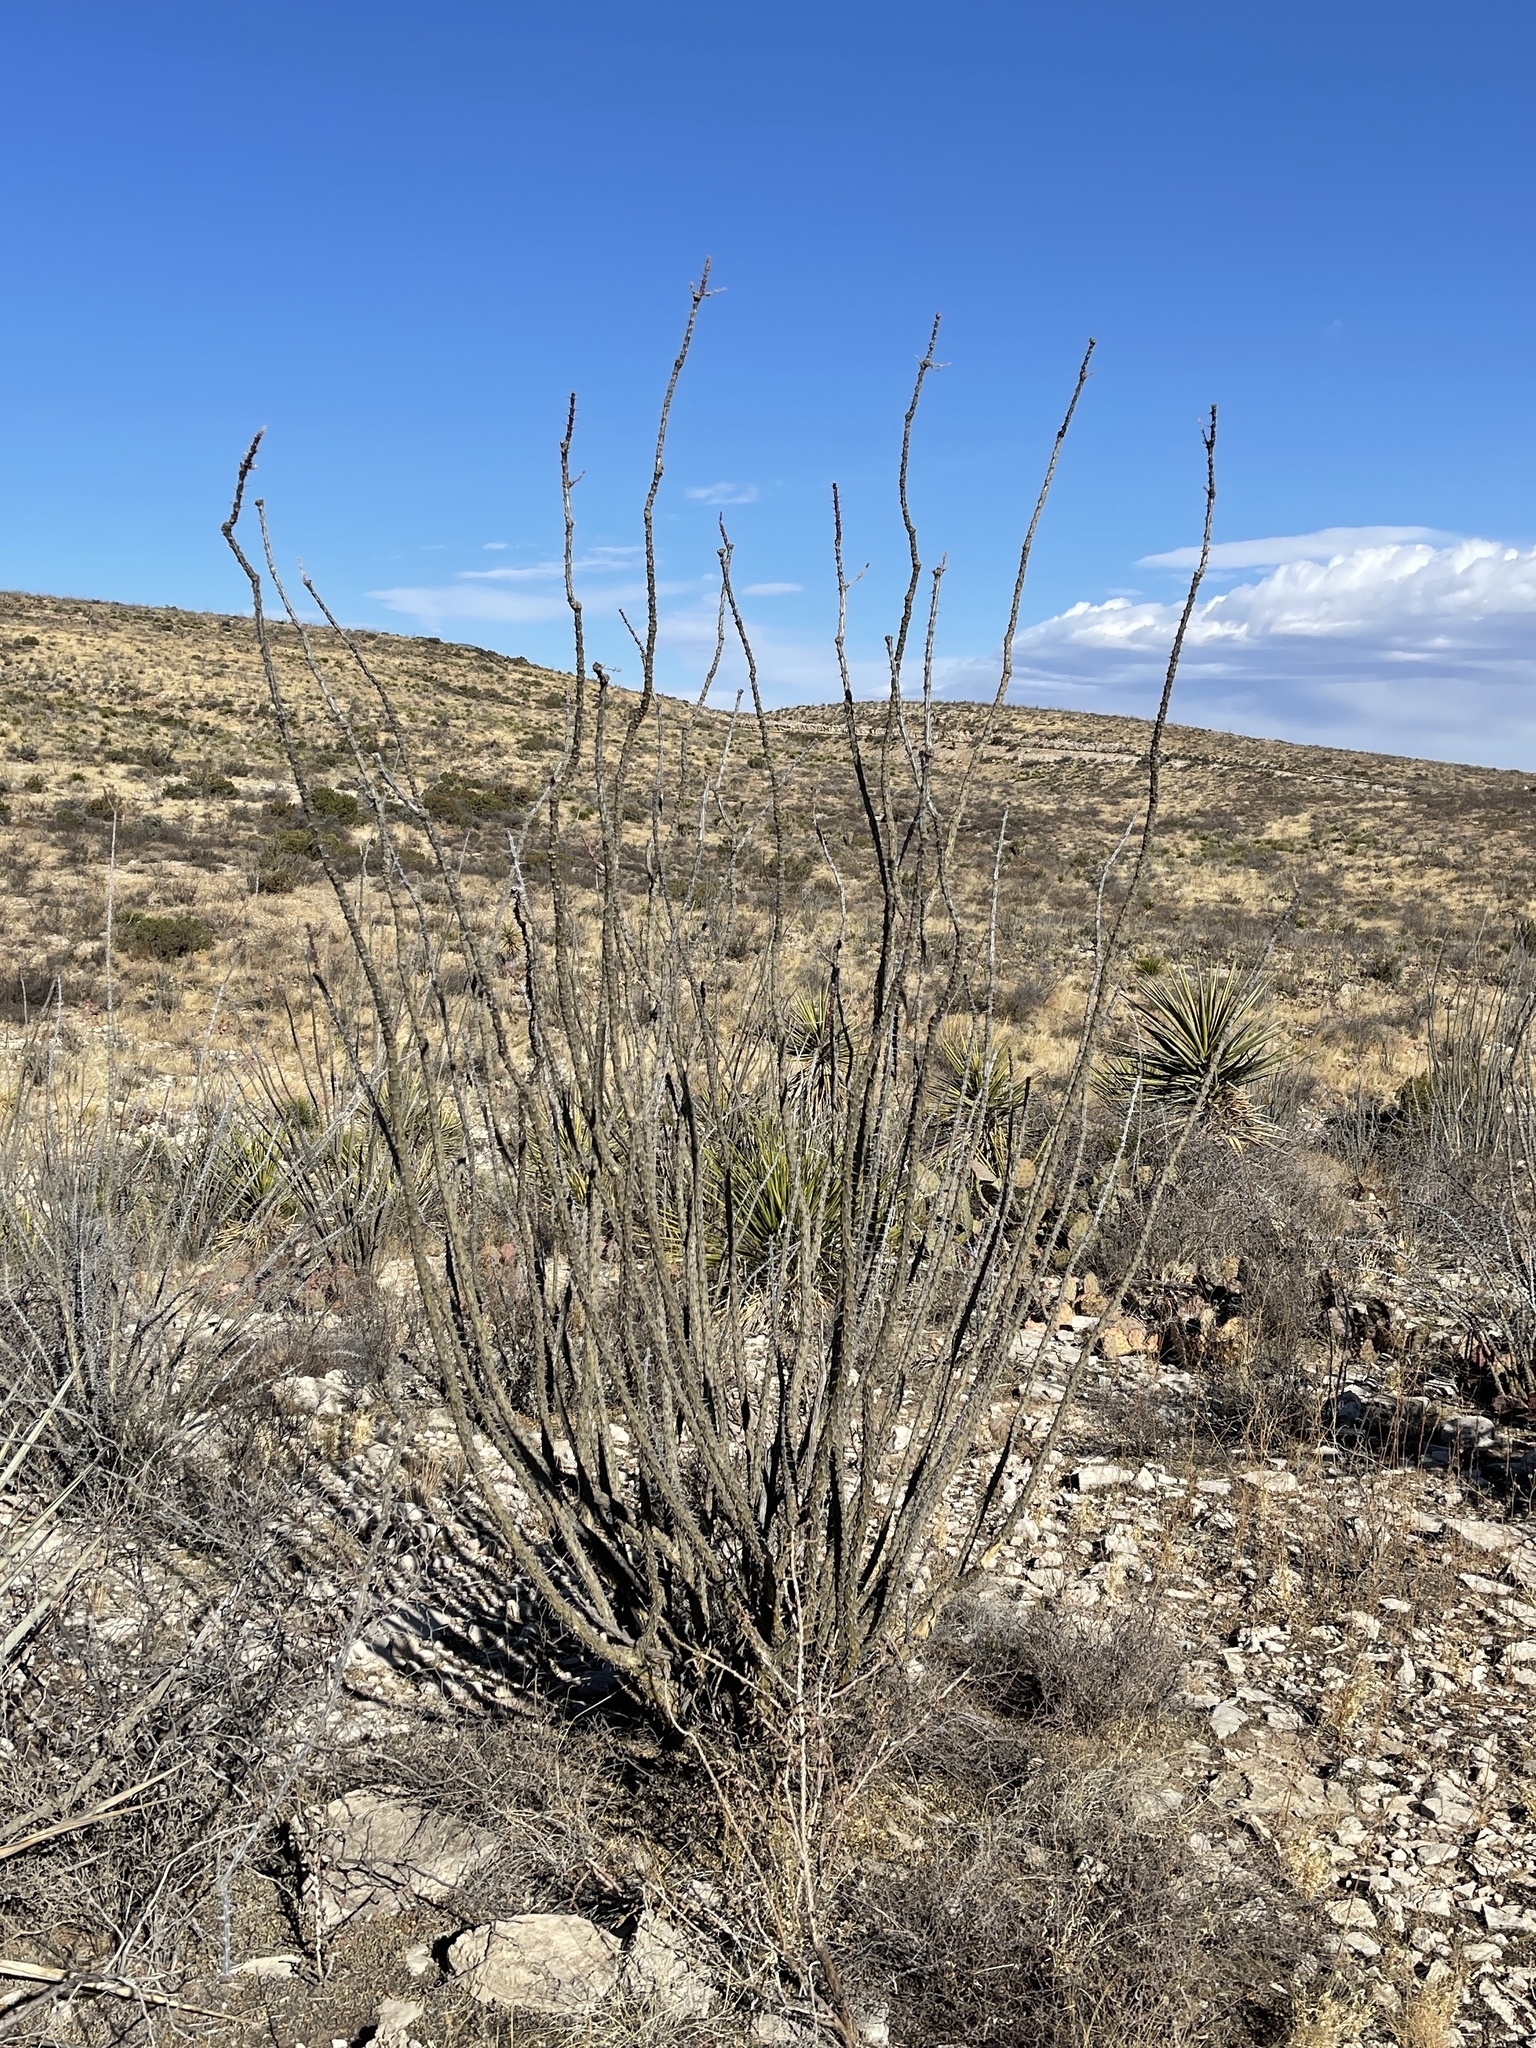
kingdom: Plantae
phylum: Tracheophyta
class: Magnoliopsida
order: Ericales
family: Fouquieriaceae
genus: Fouquieria
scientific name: Fouquieria splendens
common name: Vine-cactus
